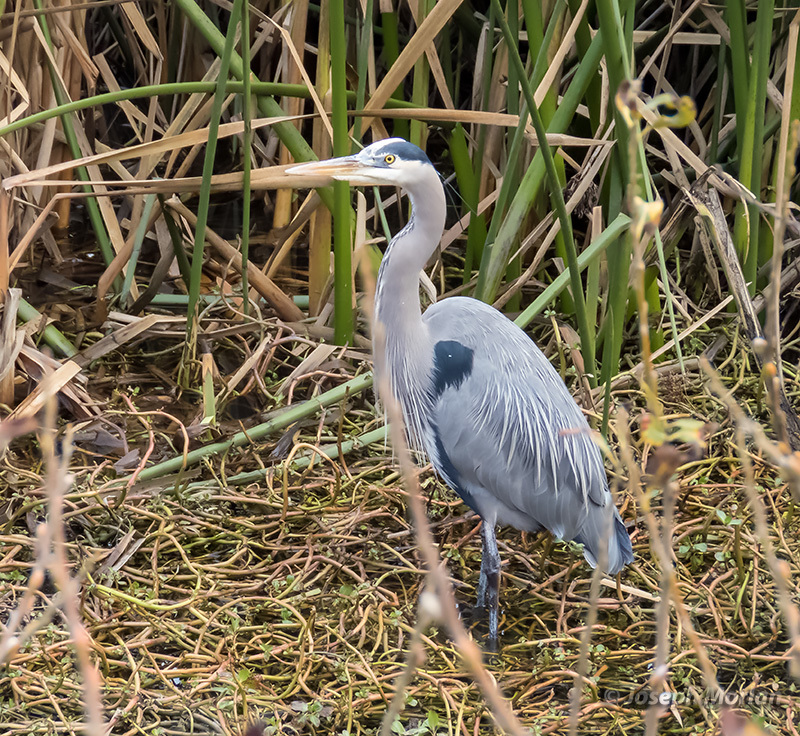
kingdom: Animalia
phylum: Chordata
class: Aves
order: Pelecaniformes
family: Ardeidae
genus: Ardea
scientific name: Ardea herodias
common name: Great blue heron
